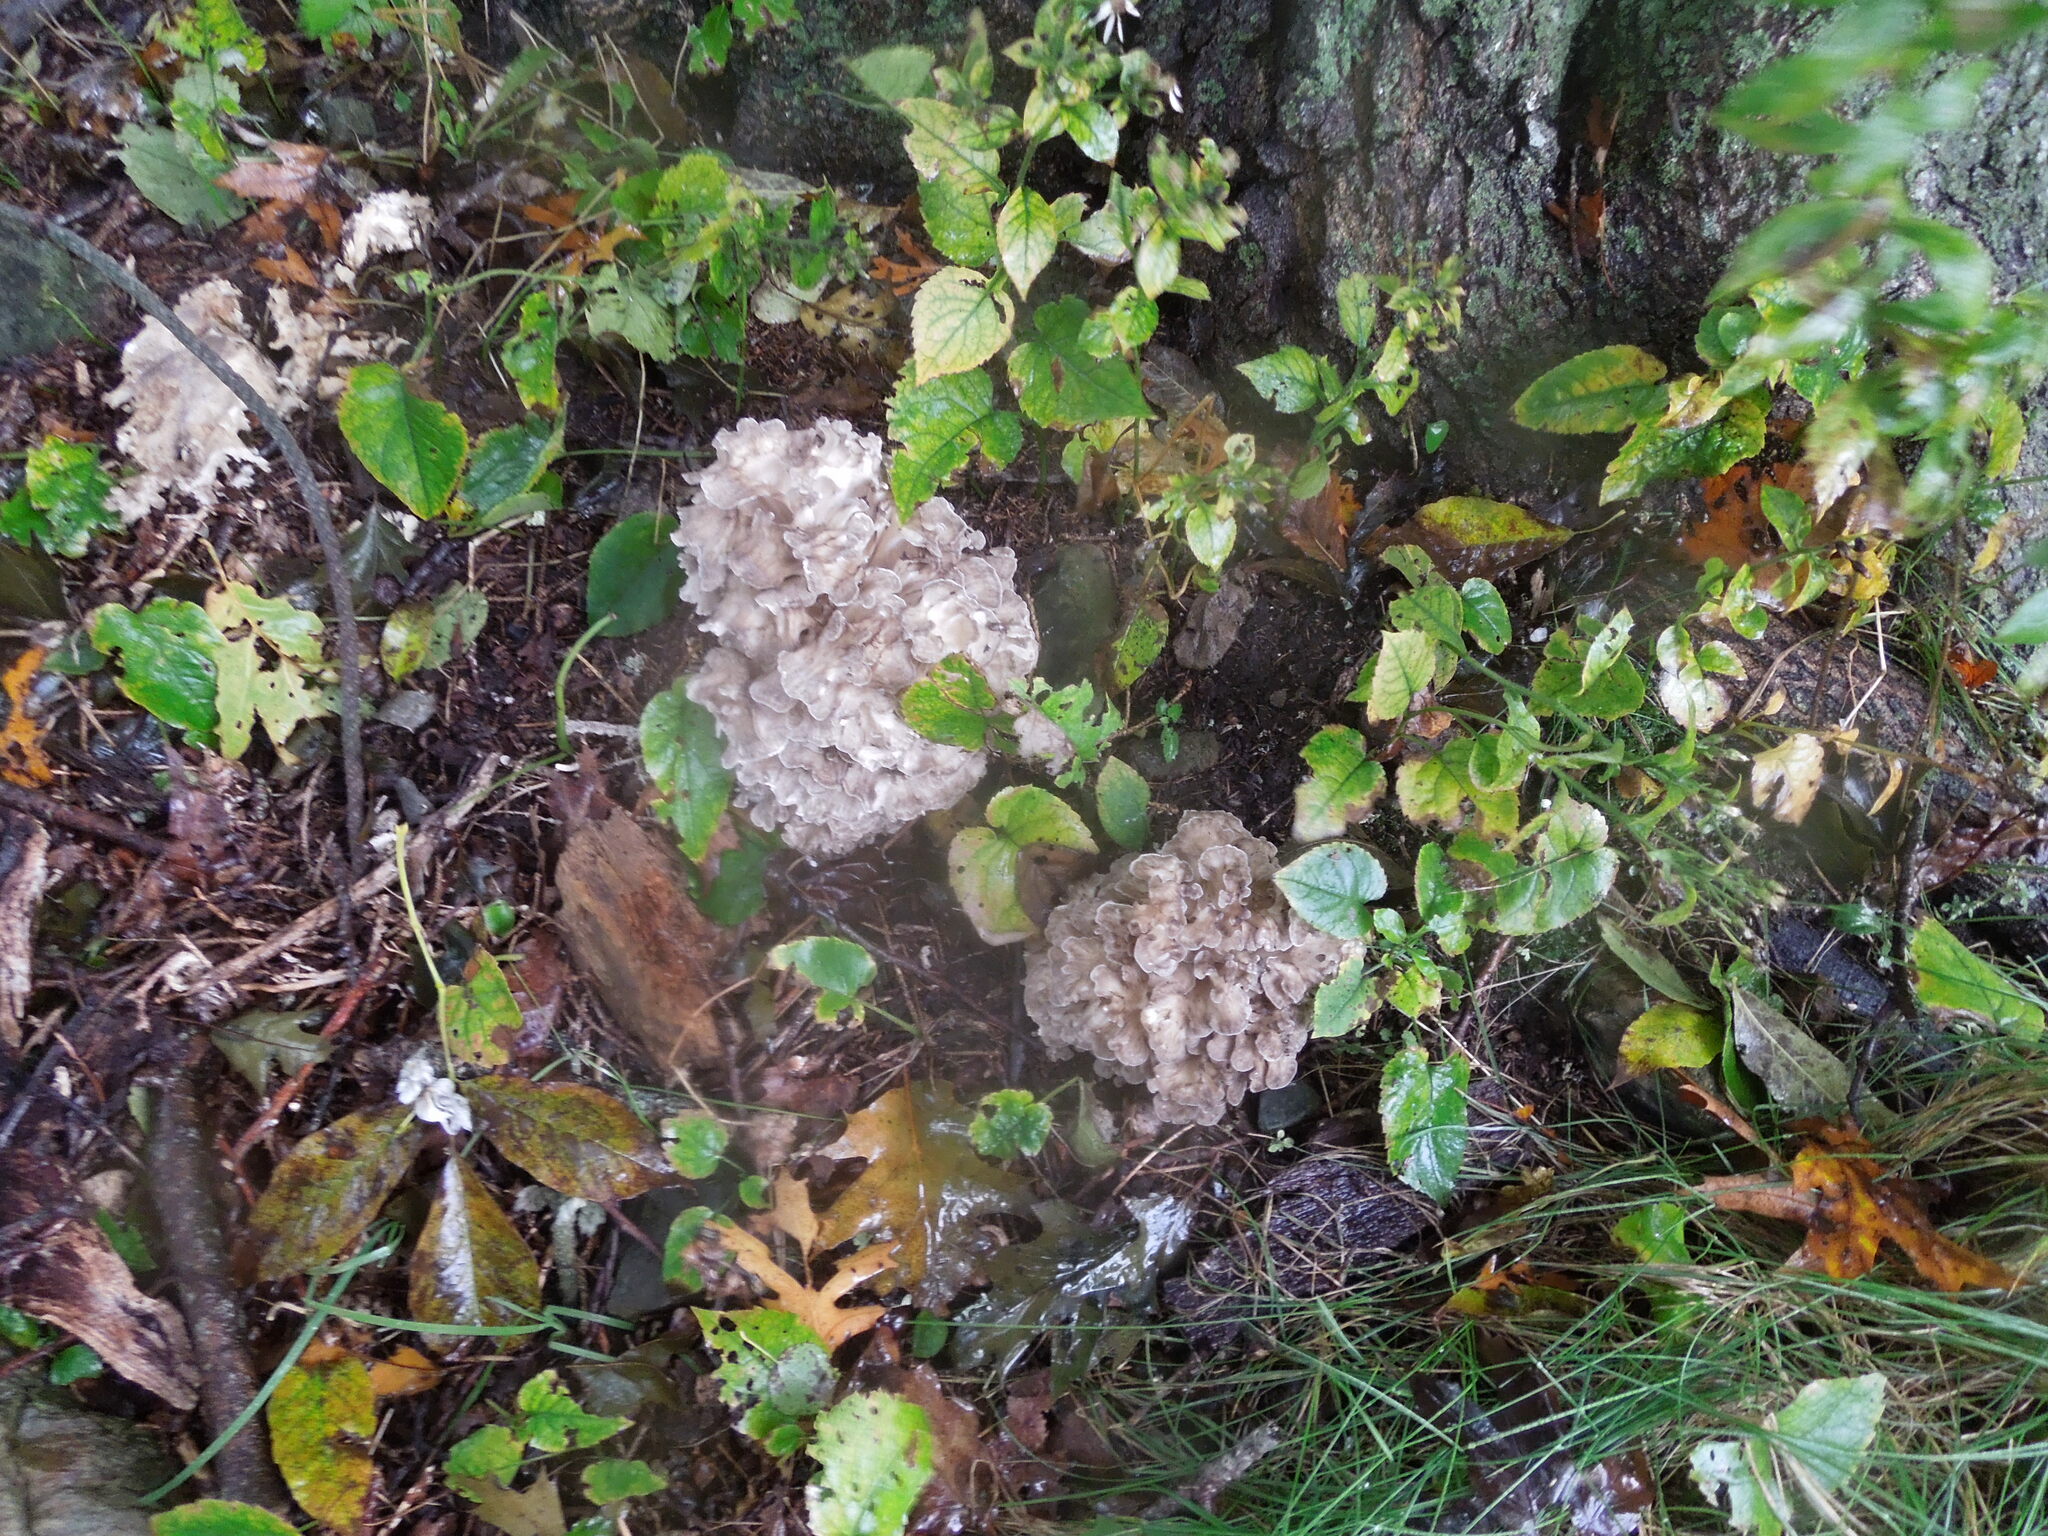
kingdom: Fungi
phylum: Basidiomycota
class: Agaricomycetes
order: Polyporales
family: Grifolaceae
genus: Grifola
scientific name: Grifola frondosa
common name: Hen of the woods
